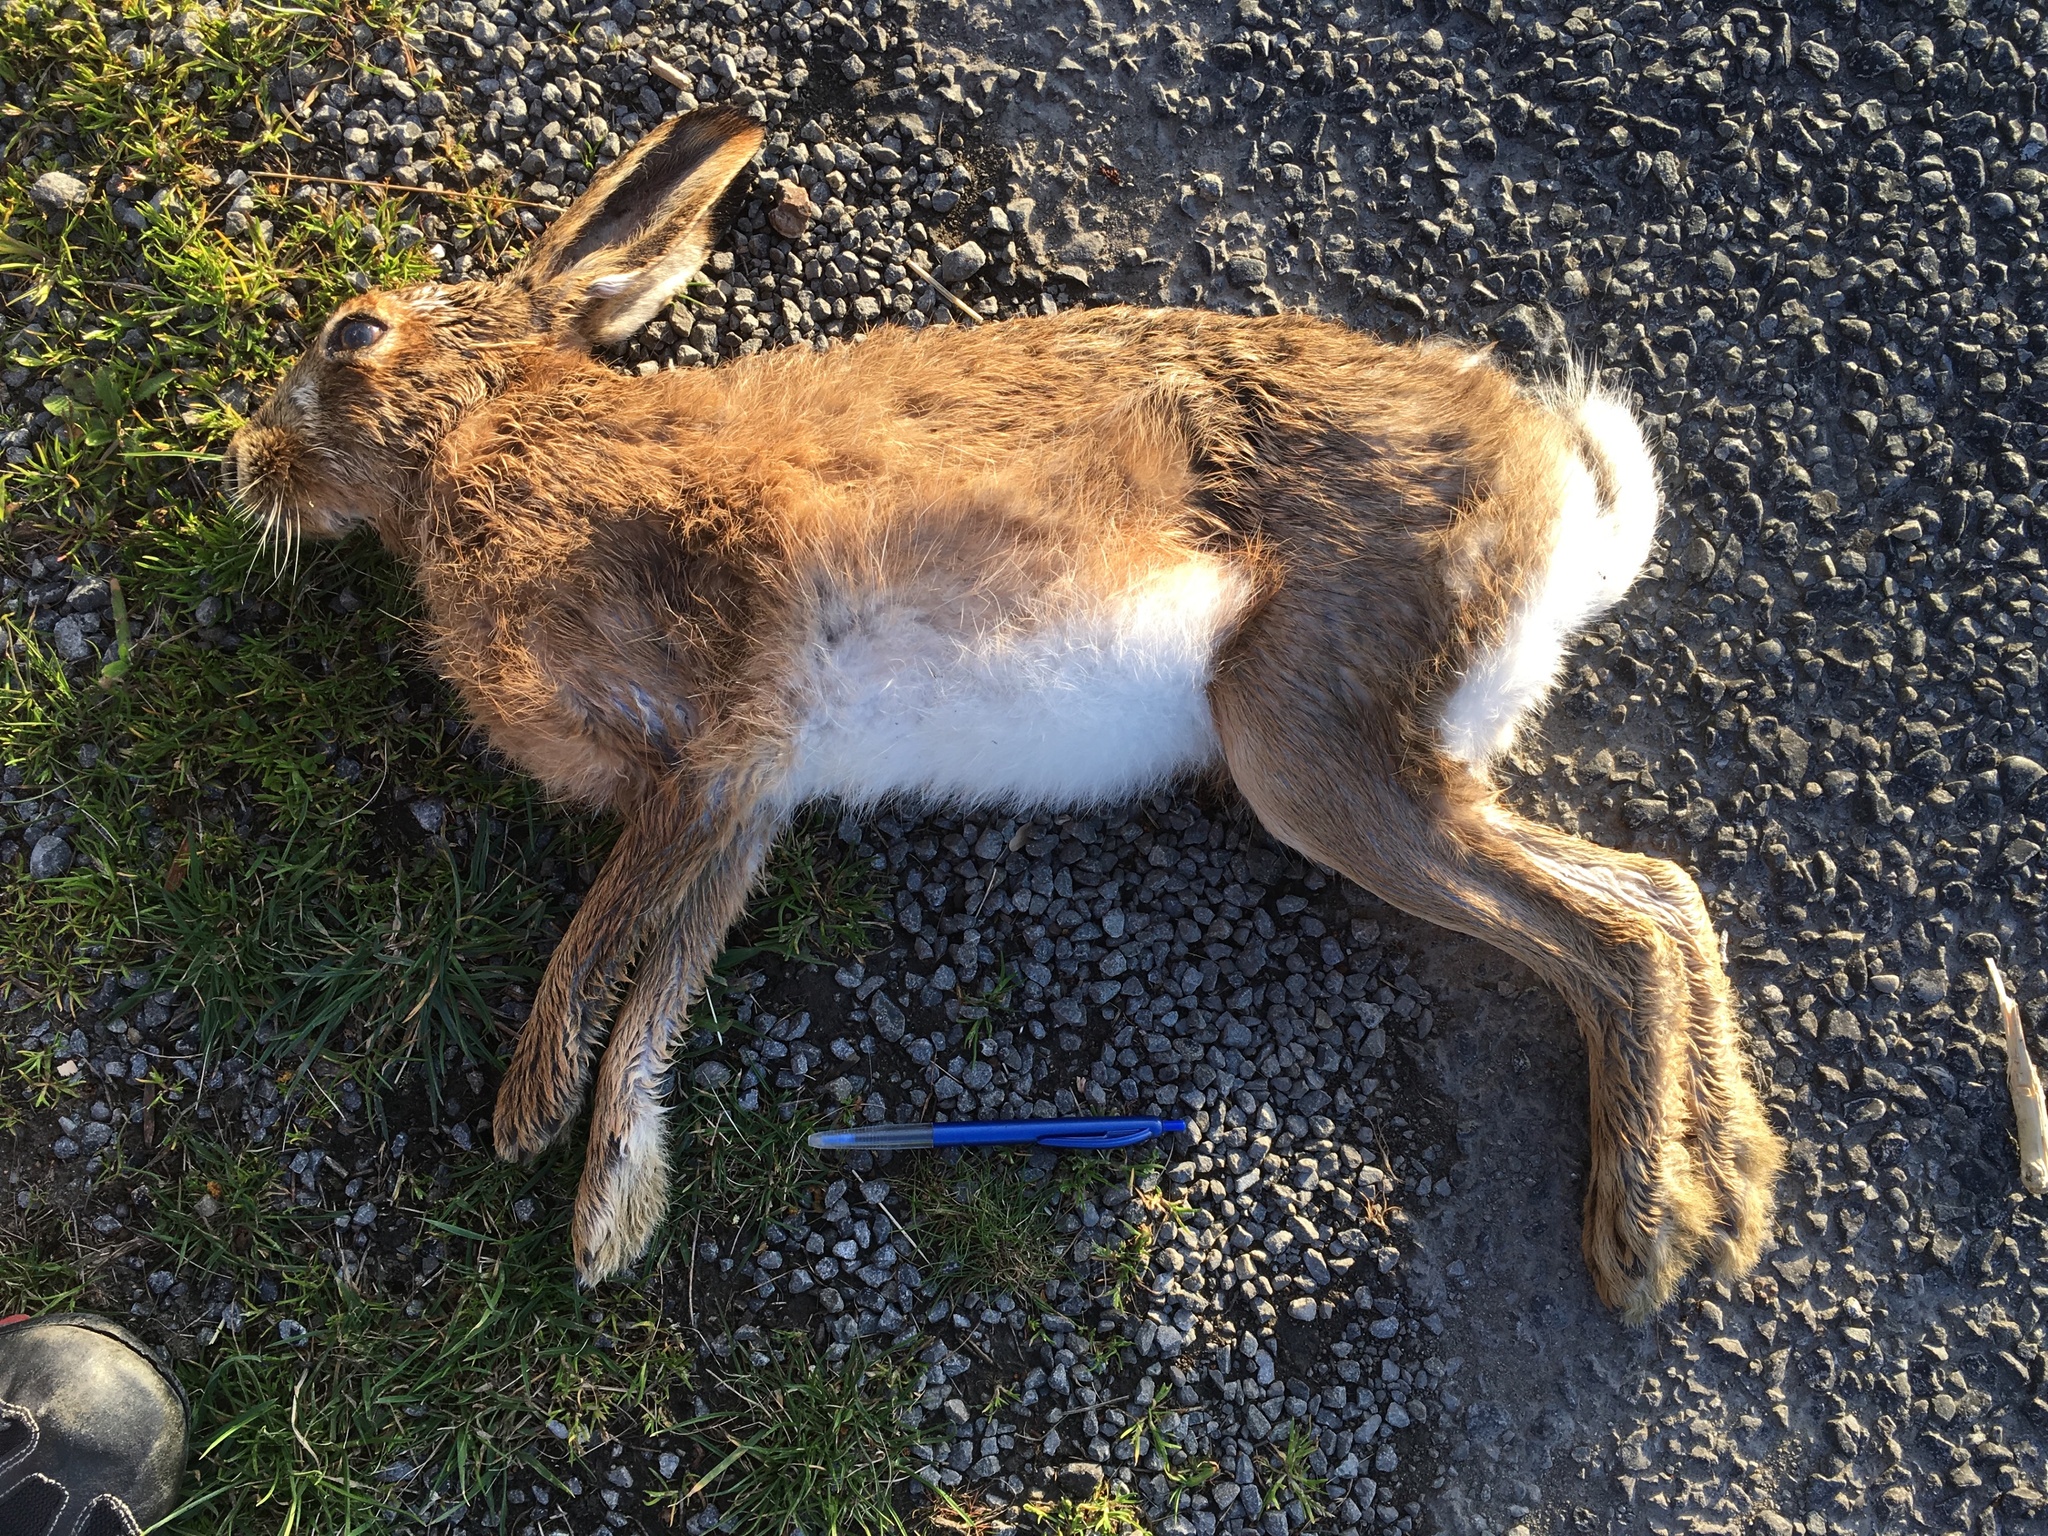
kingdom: Animalia
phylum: Chordata
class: Mammalia
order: Lagomorpha
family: Leporidae
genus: Lepus
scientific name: Lepus europaeus
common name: European hare
